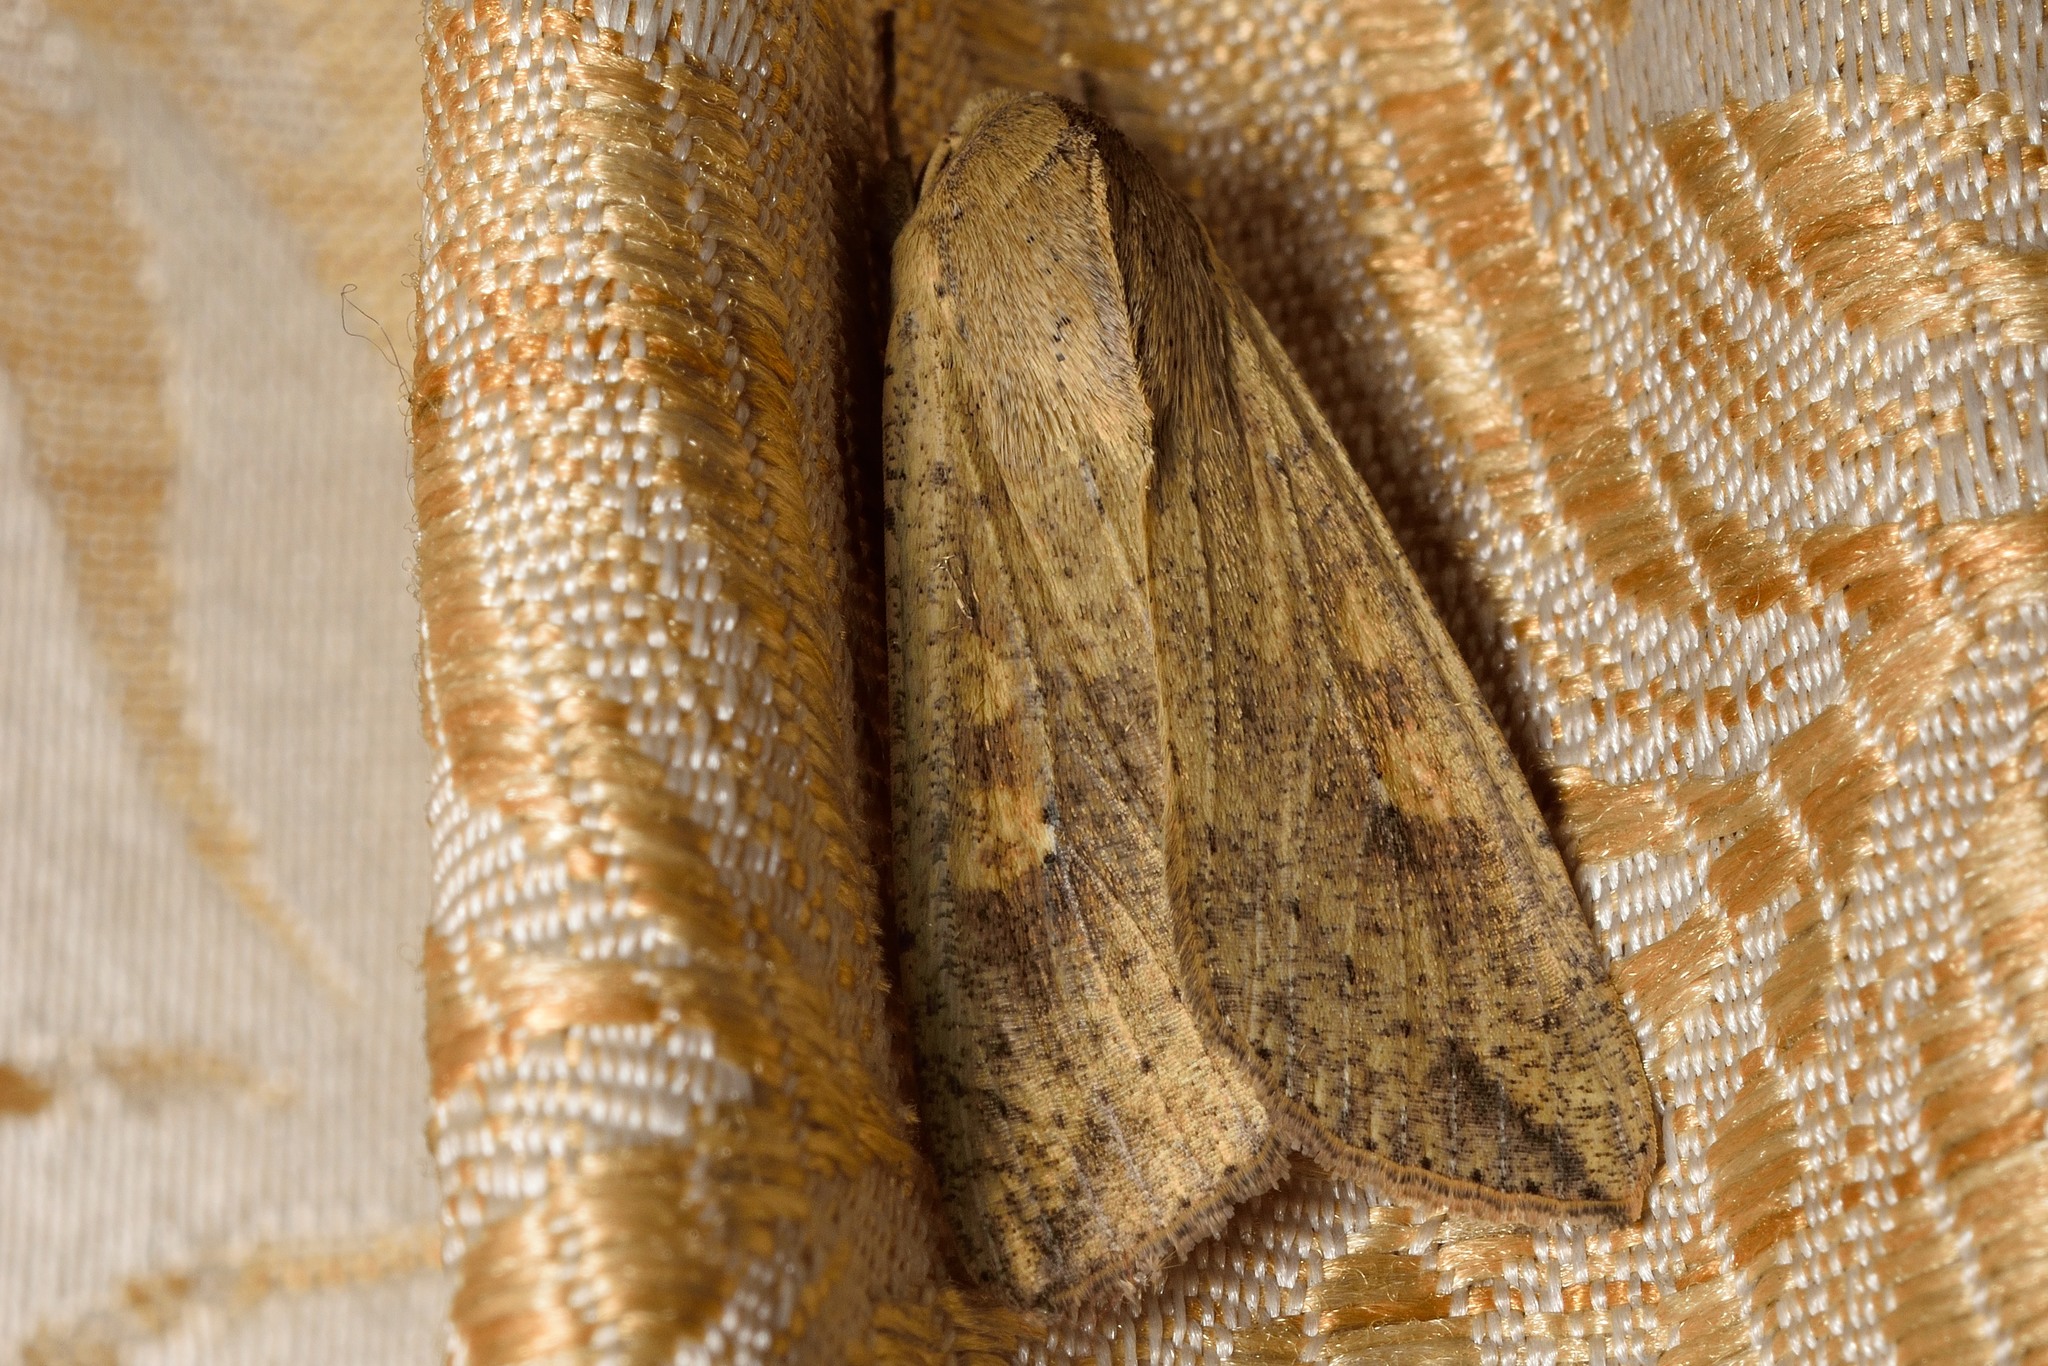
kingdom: Animalia
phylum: Arthropoda
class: Insecta
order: Lepidoptera
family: Noctuidae
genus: Mythimna
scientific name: Mythimna separata
